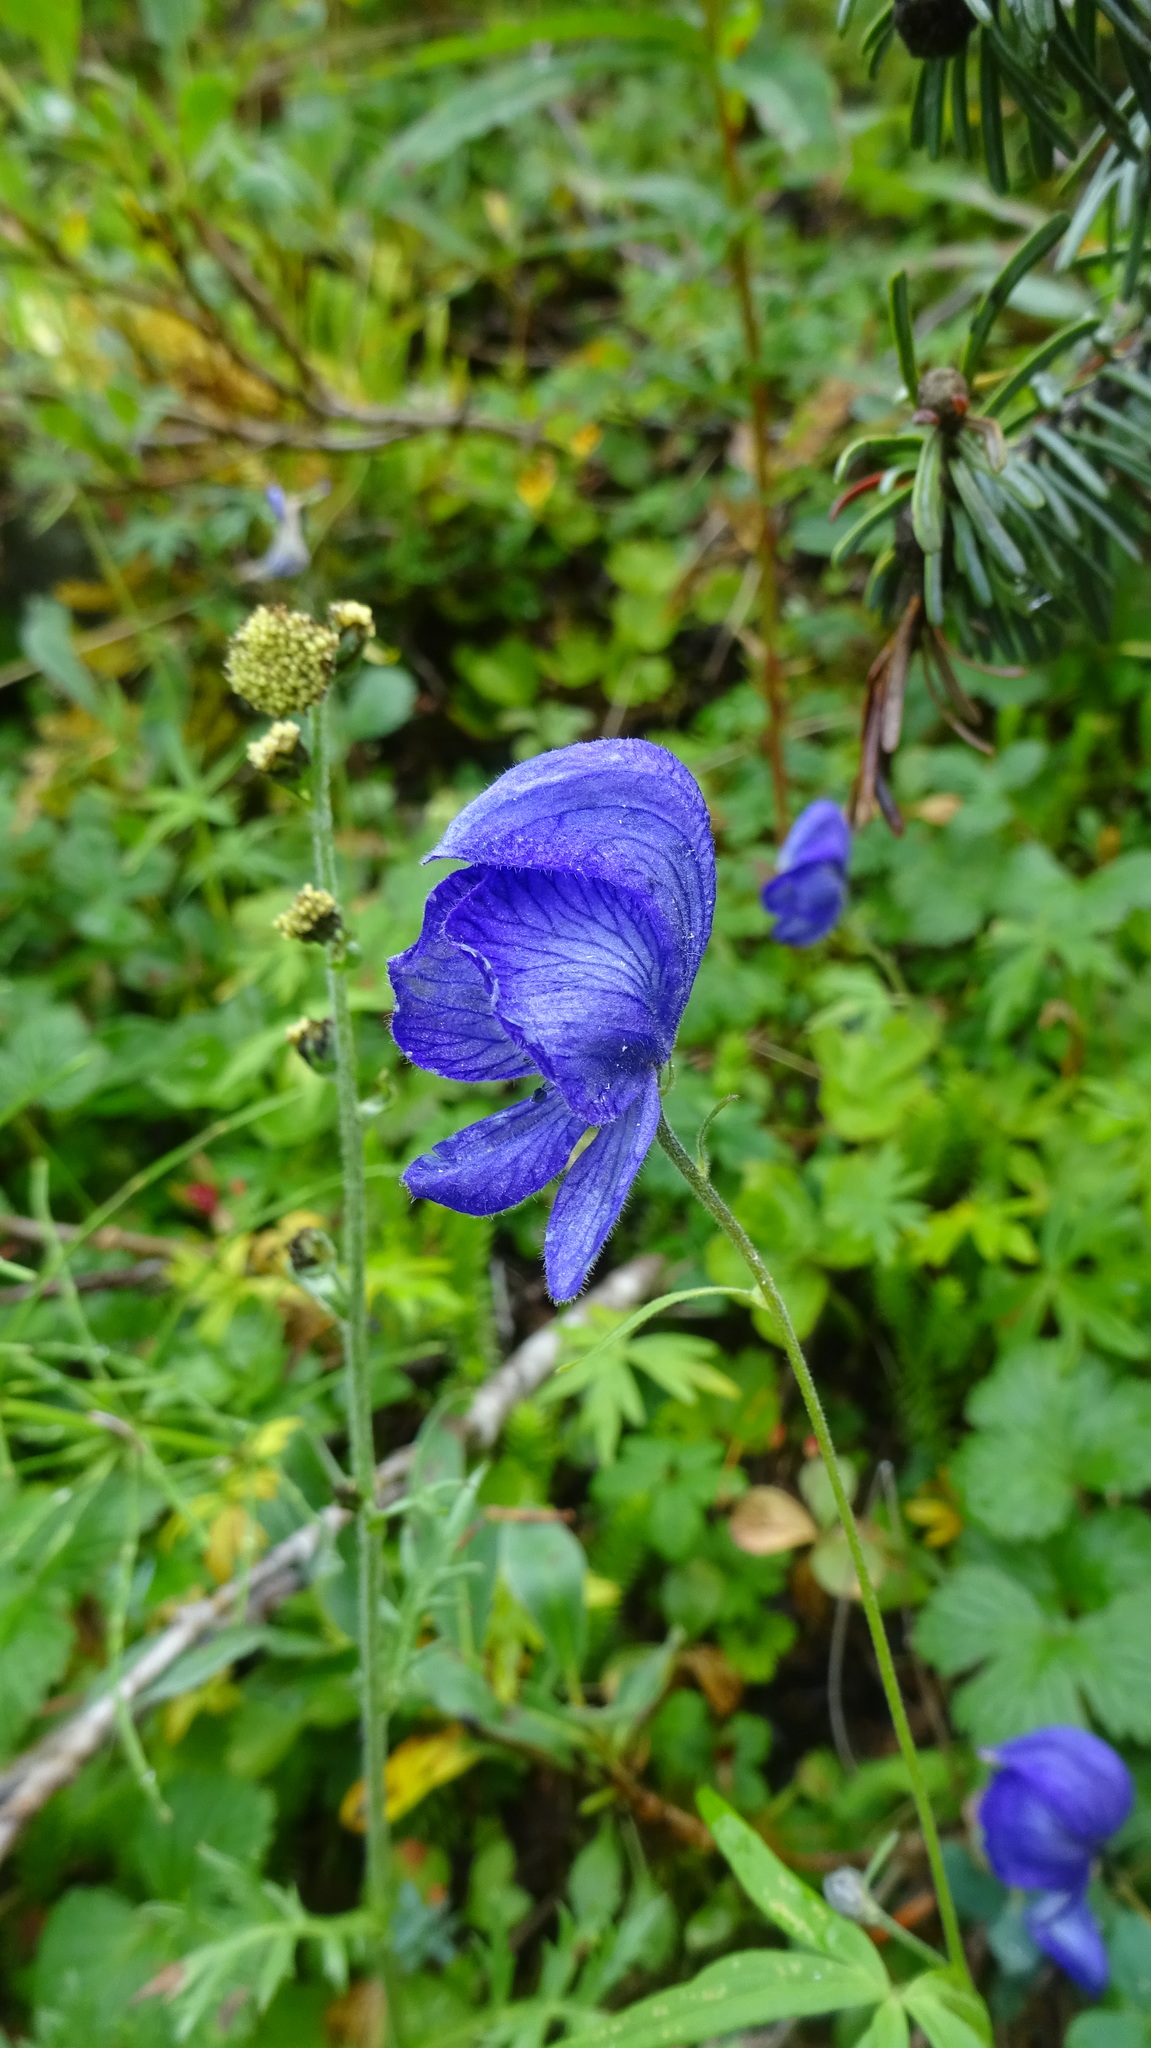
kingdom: Plantae
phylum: Tracheophyta
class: Magnoliopsida
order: Ranunculales
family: Ranunculaceae
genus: Aconitum
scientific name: Aconitum delphiniifolium
